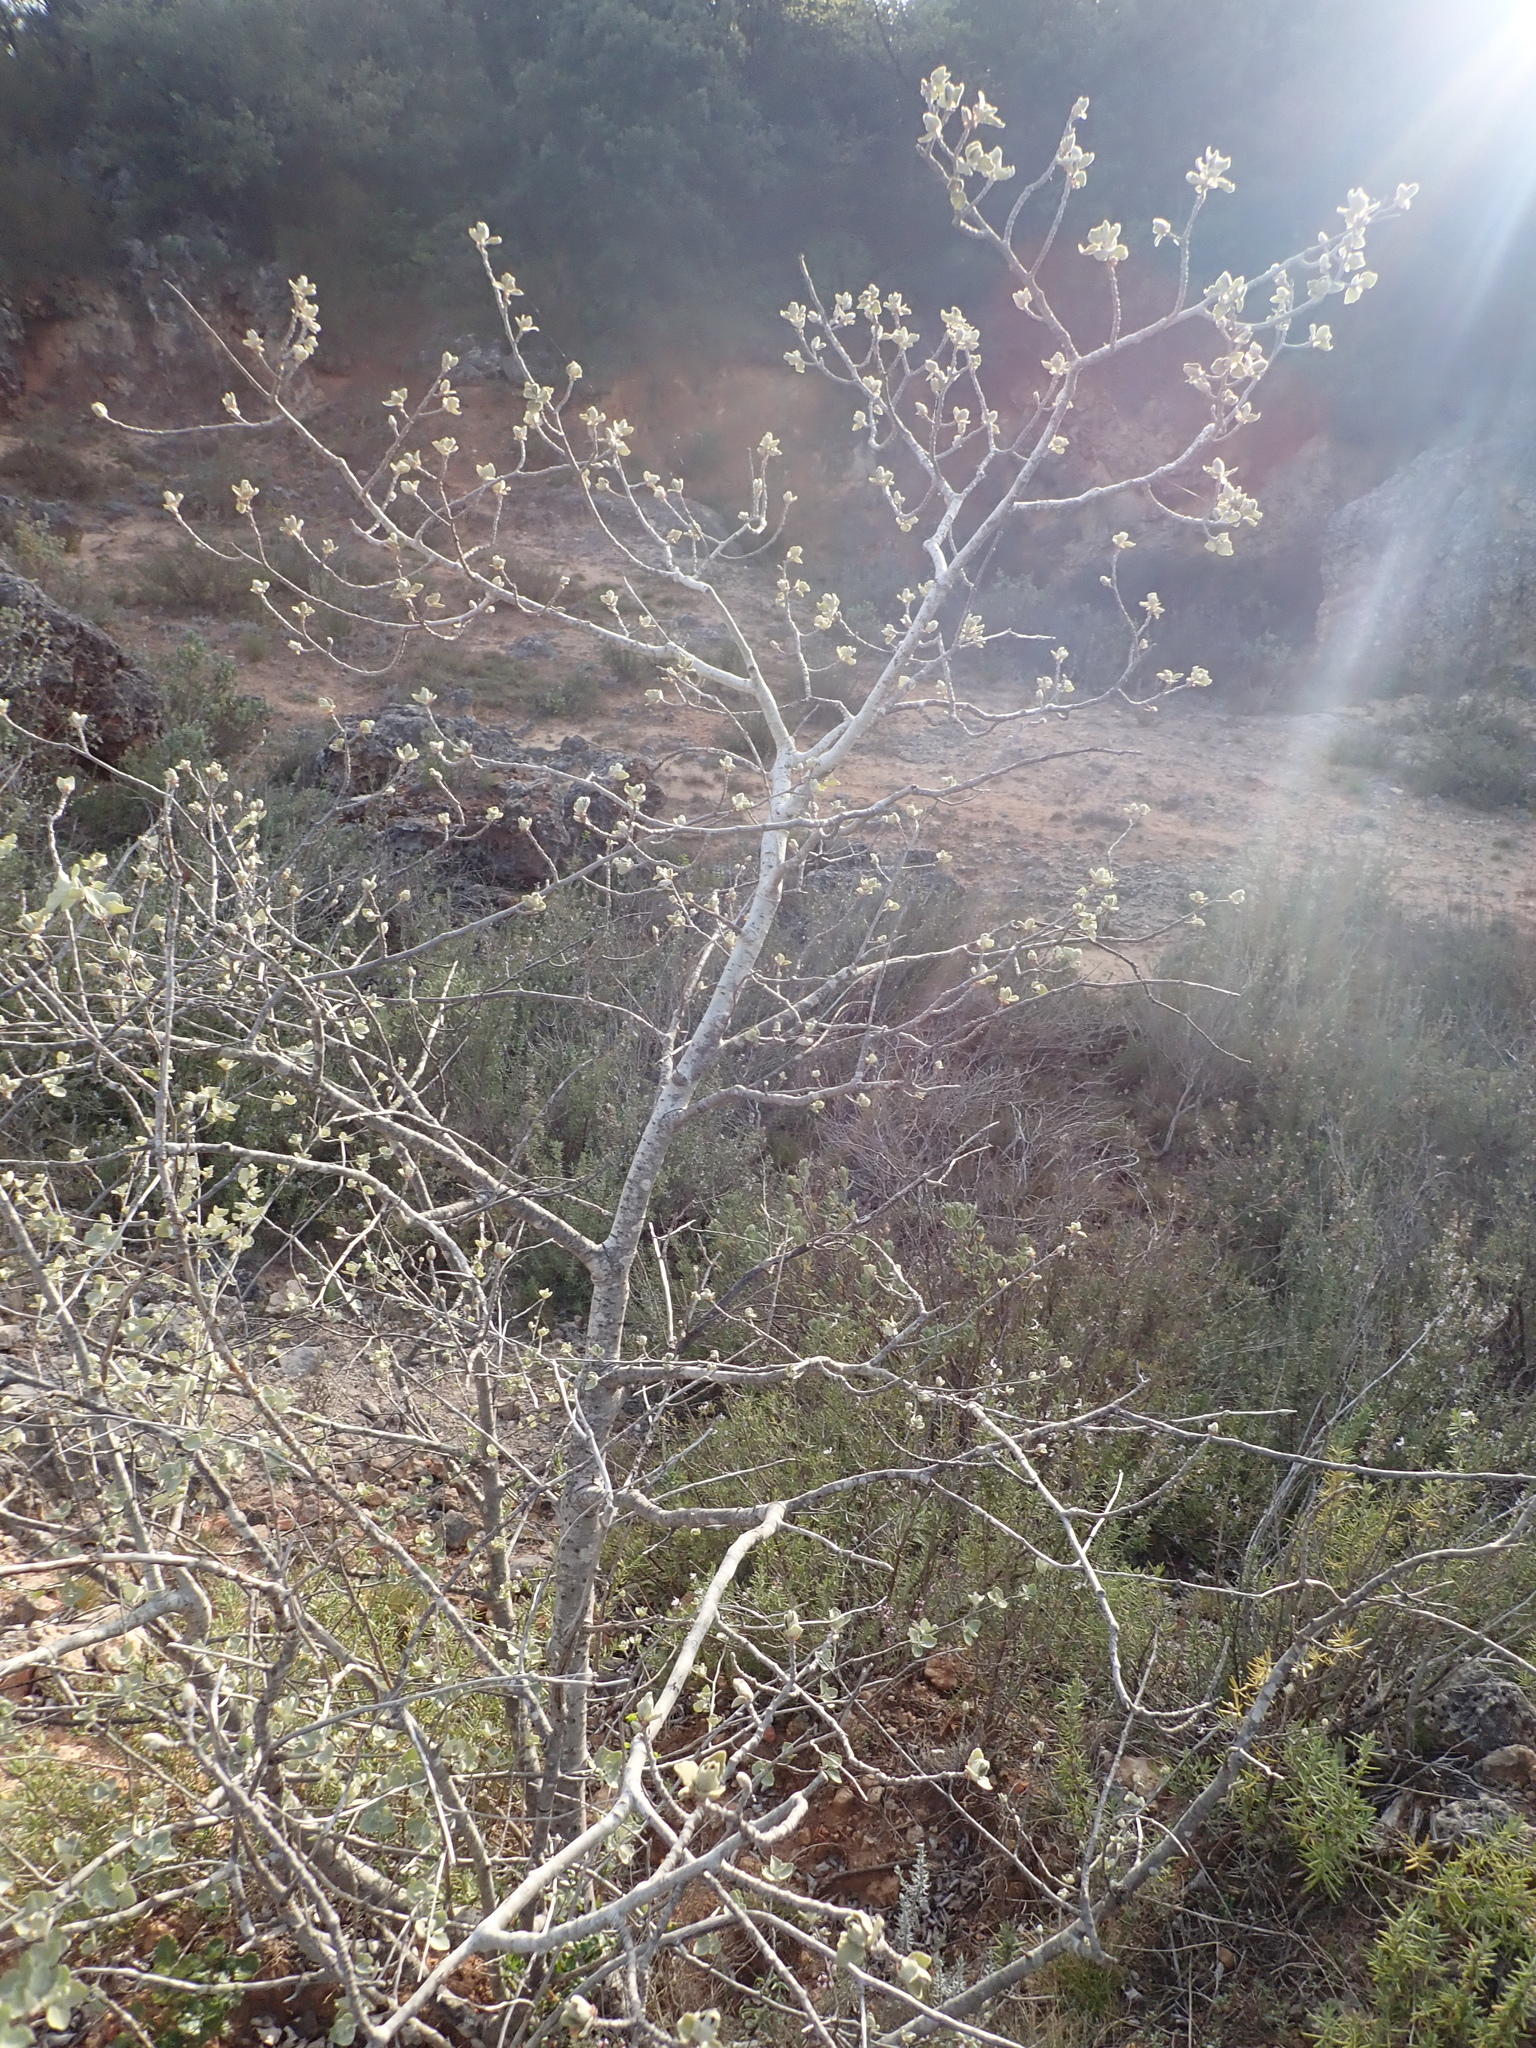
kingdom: Plantae
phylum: Tracheophyta
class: Magnoliopsida
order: Malpighiales
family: Salicaceae
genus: Populus
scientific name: Populus alba
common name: White poplar
